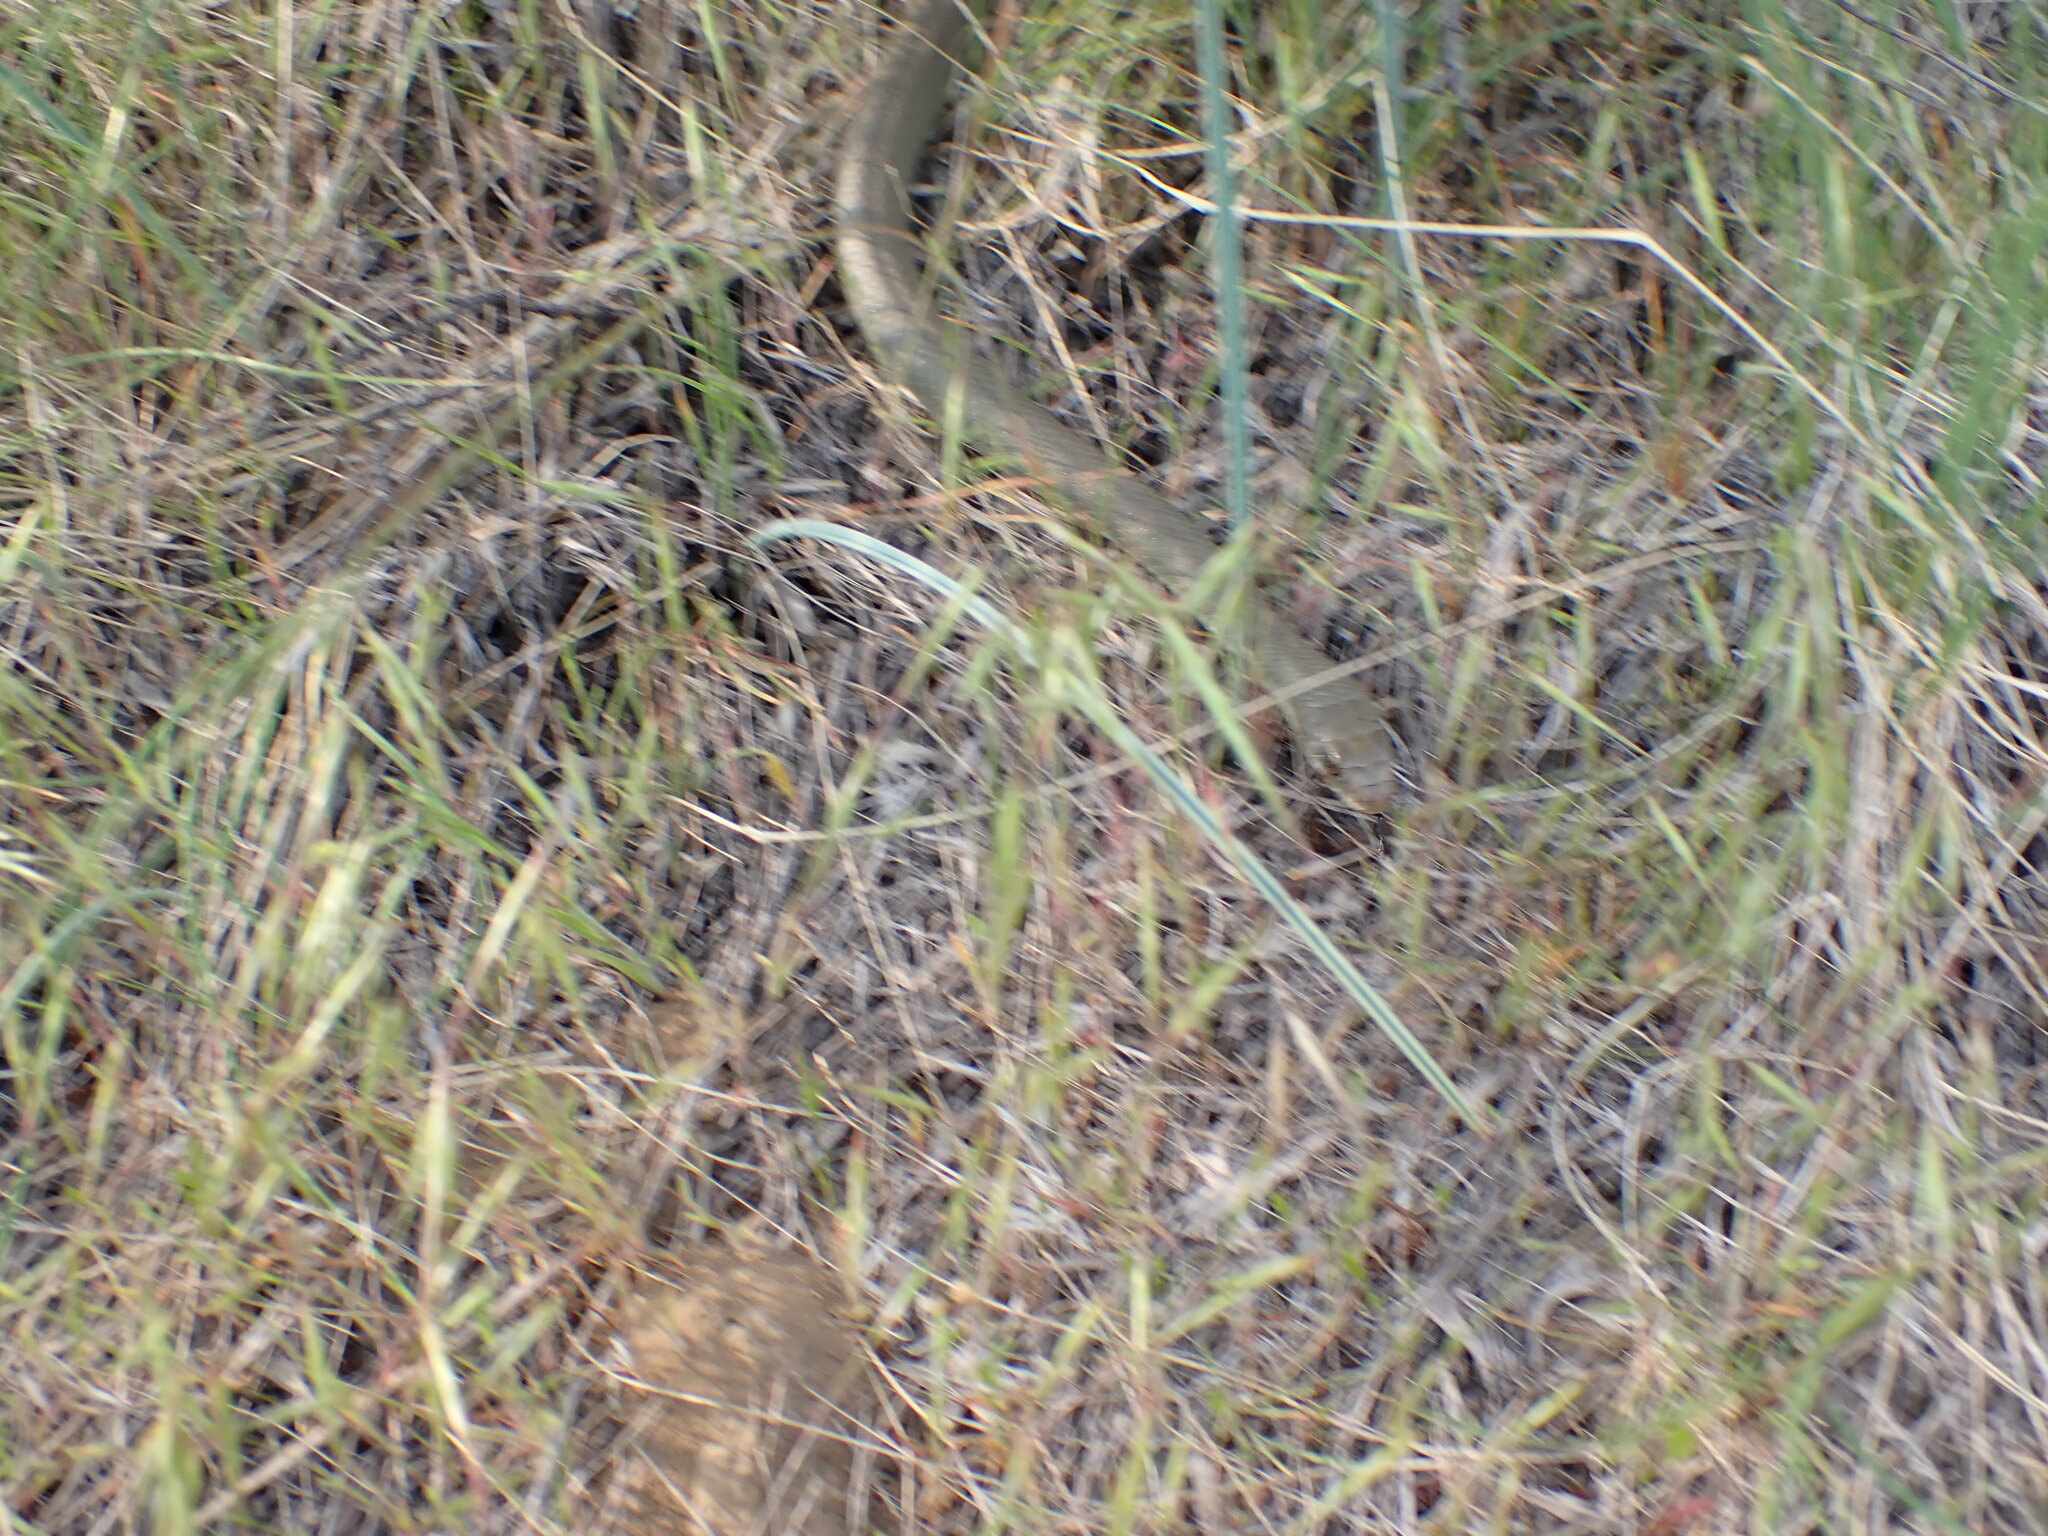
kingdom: Animalia
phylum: Chordata
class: Squamata
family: Colubridae
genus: Coluber
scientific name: Coluber constrictor
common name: Eastern racer
